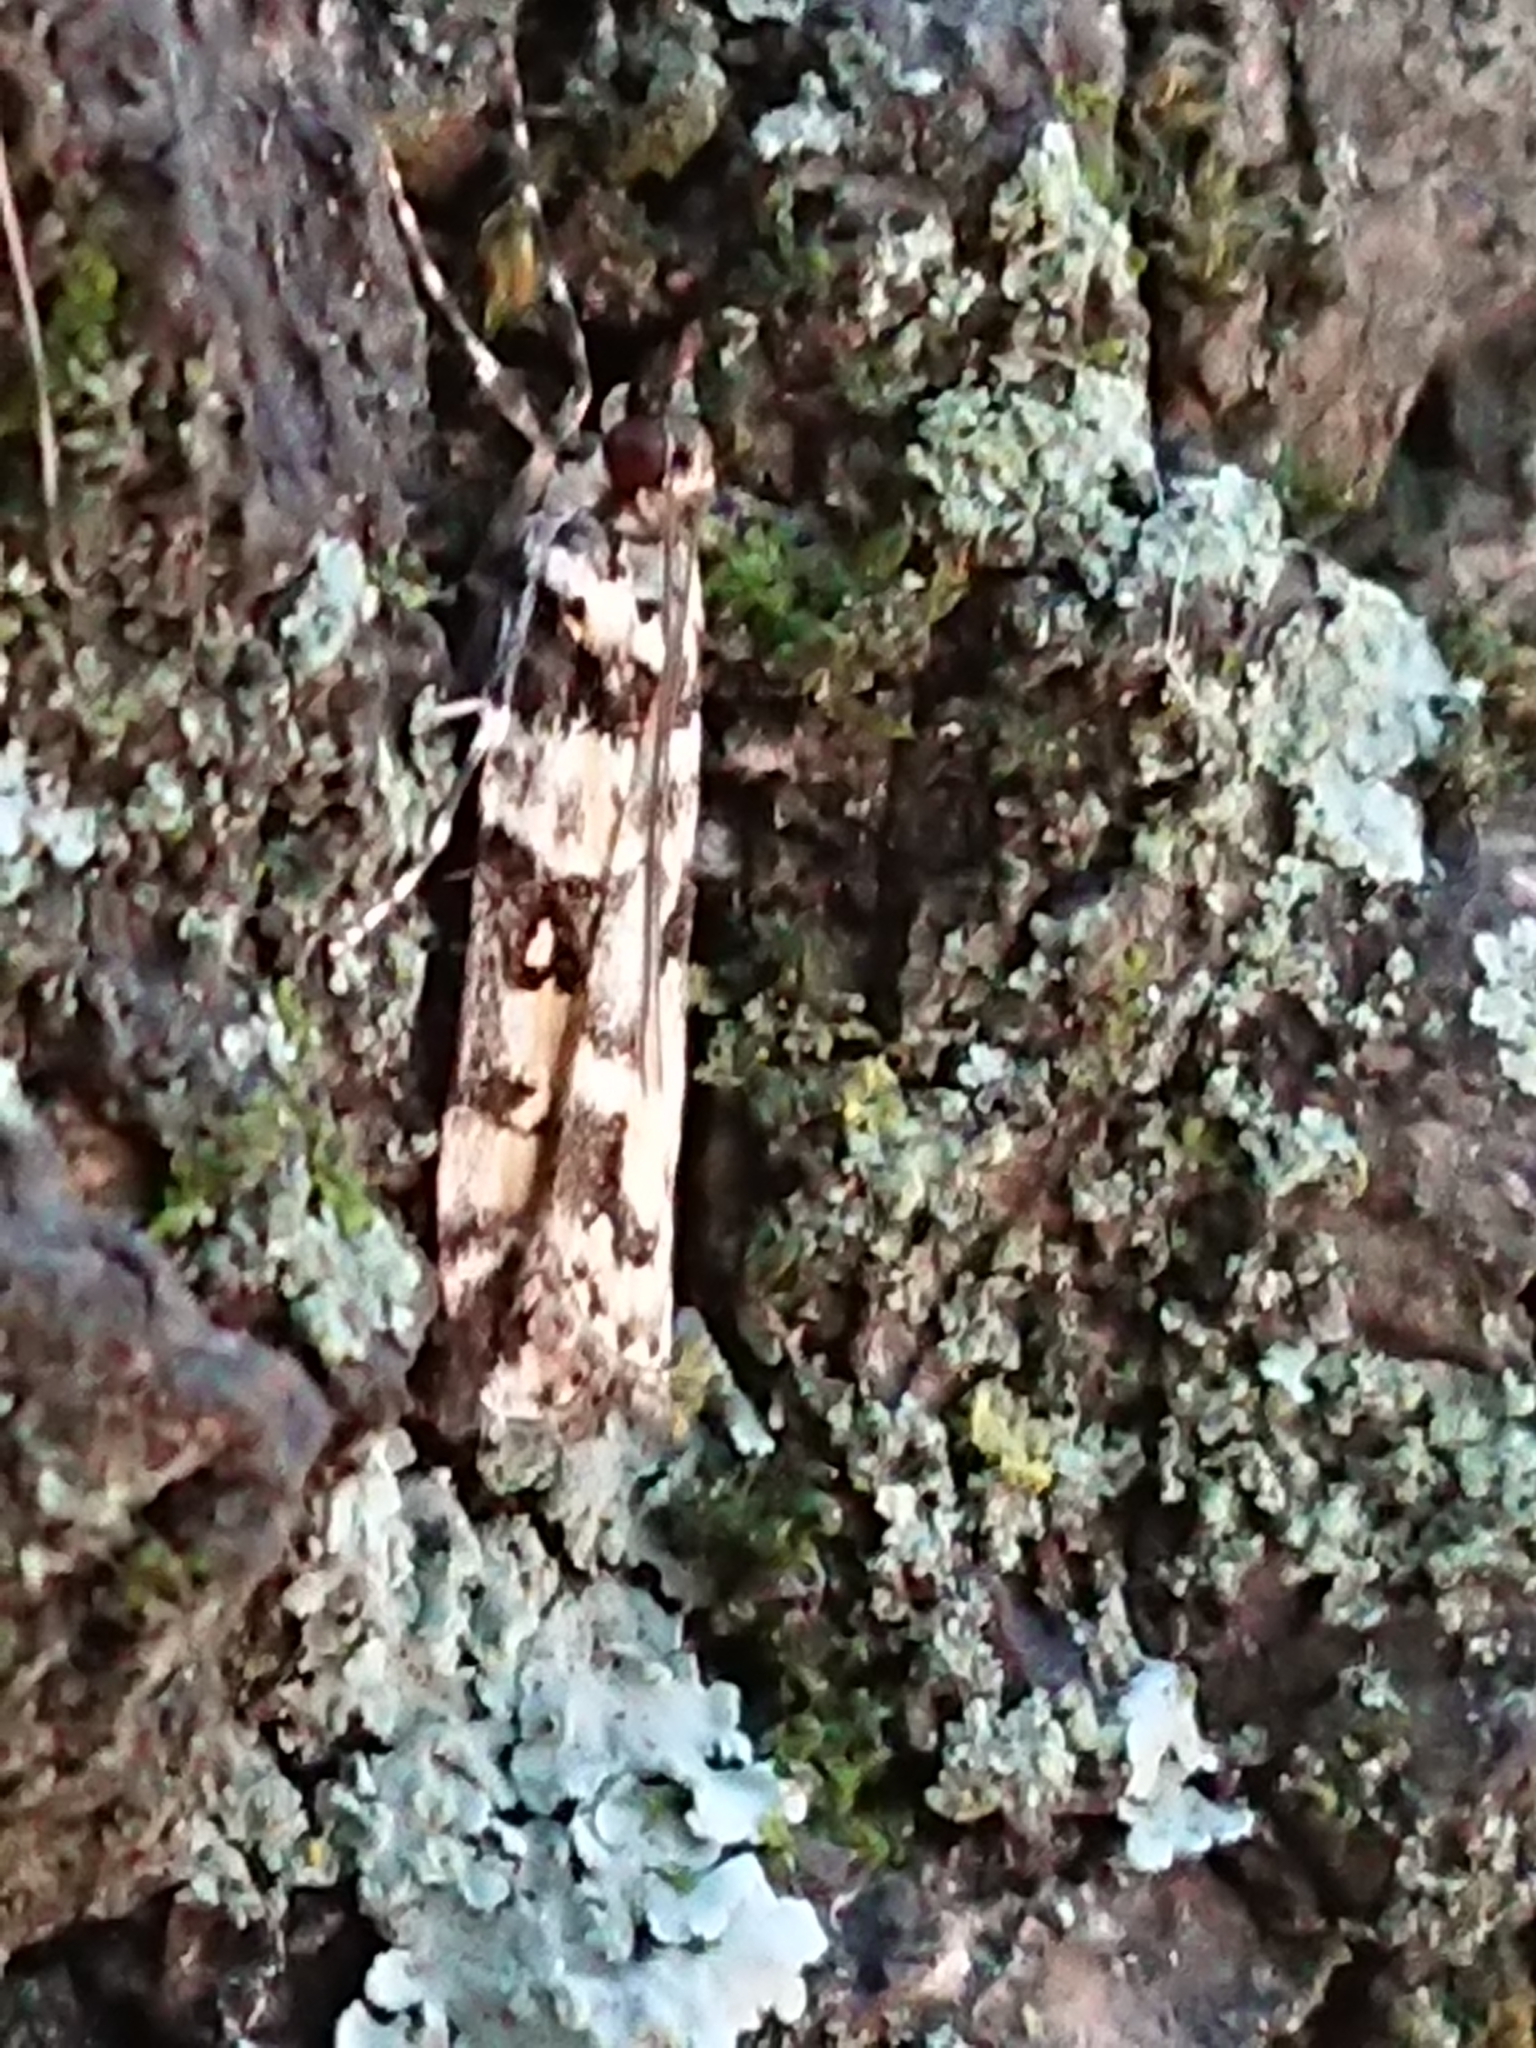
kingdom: Animalia
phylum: Arthropoda
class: Insecta
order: Lepidoptera
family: Crambidae
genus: Eudonia
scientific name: Eudonia diphtheralis
